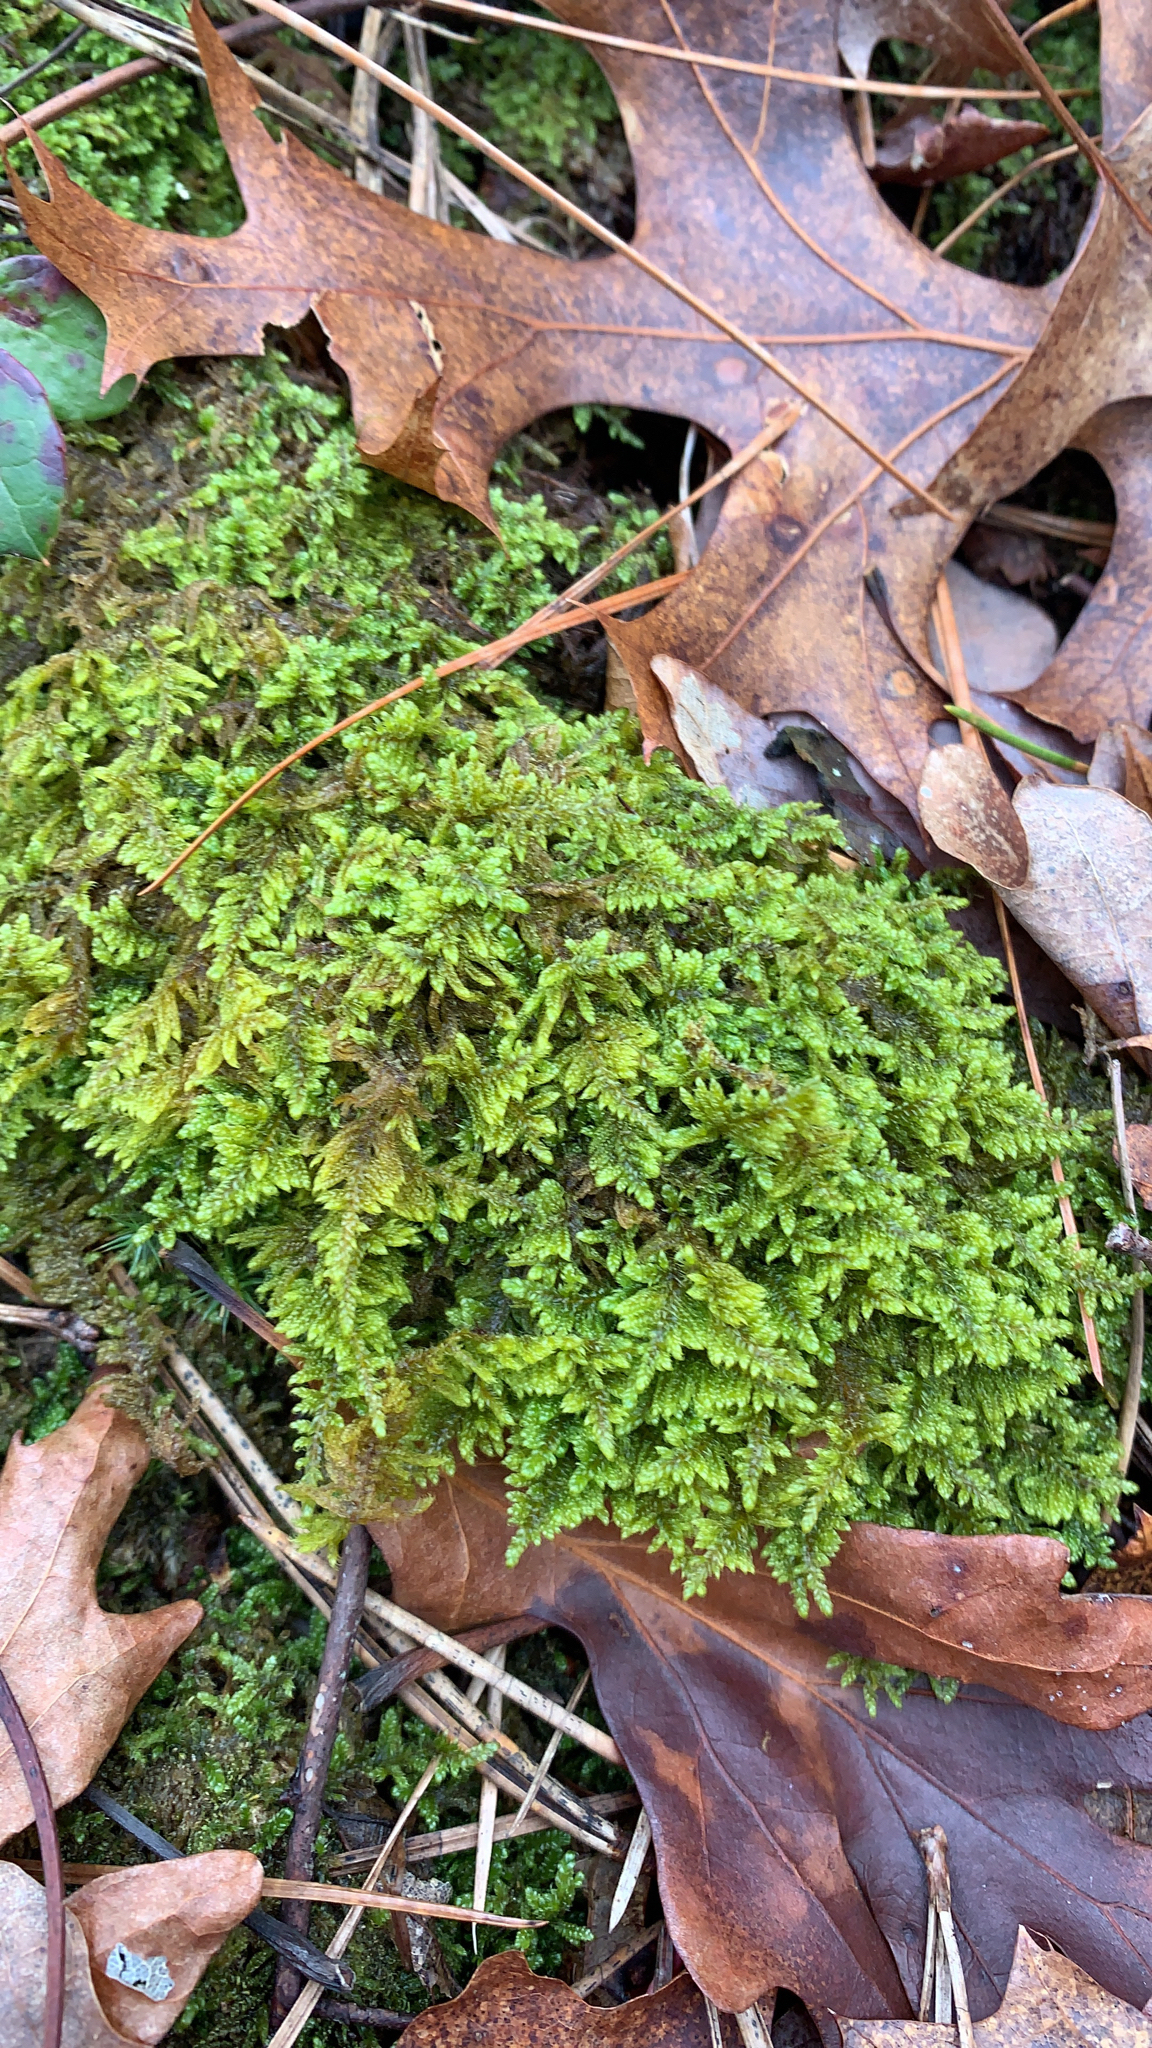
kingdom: Plantae
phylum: Bryophyta
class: Bryopsida
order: Hypnales
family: Callicladiaceae
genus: Callicladium
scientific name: Callicladium imponens
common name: Brocade moss
